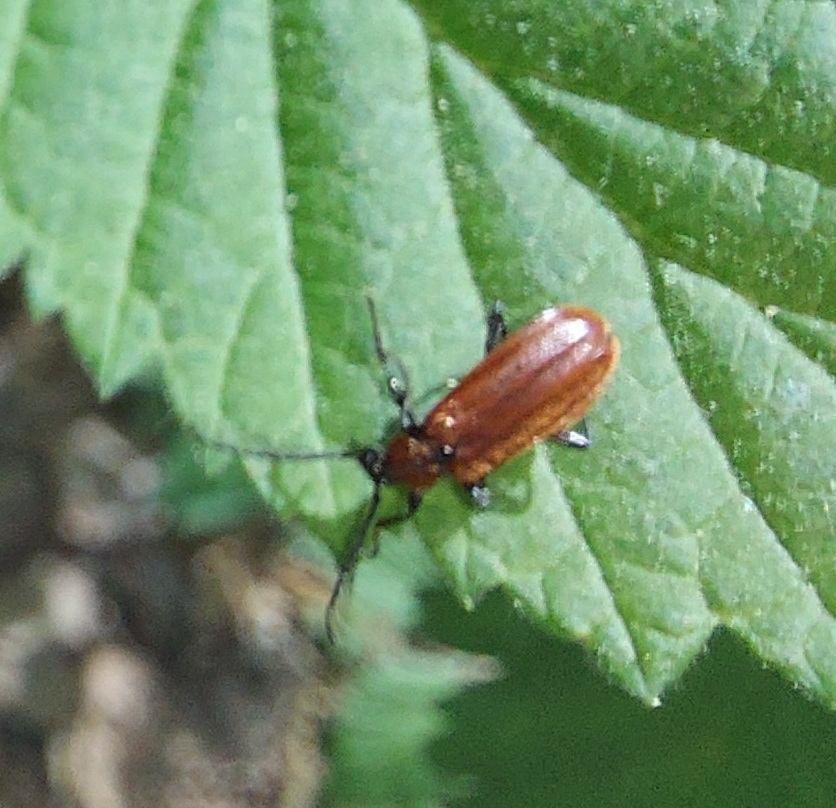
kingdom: Animalia
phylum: Arthropoda
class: Insecta
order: Coleoptera
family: Pyrochroidae
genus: Schizotus
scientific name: Schizotus pectinicornis
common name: Scarce cardinal beetle
